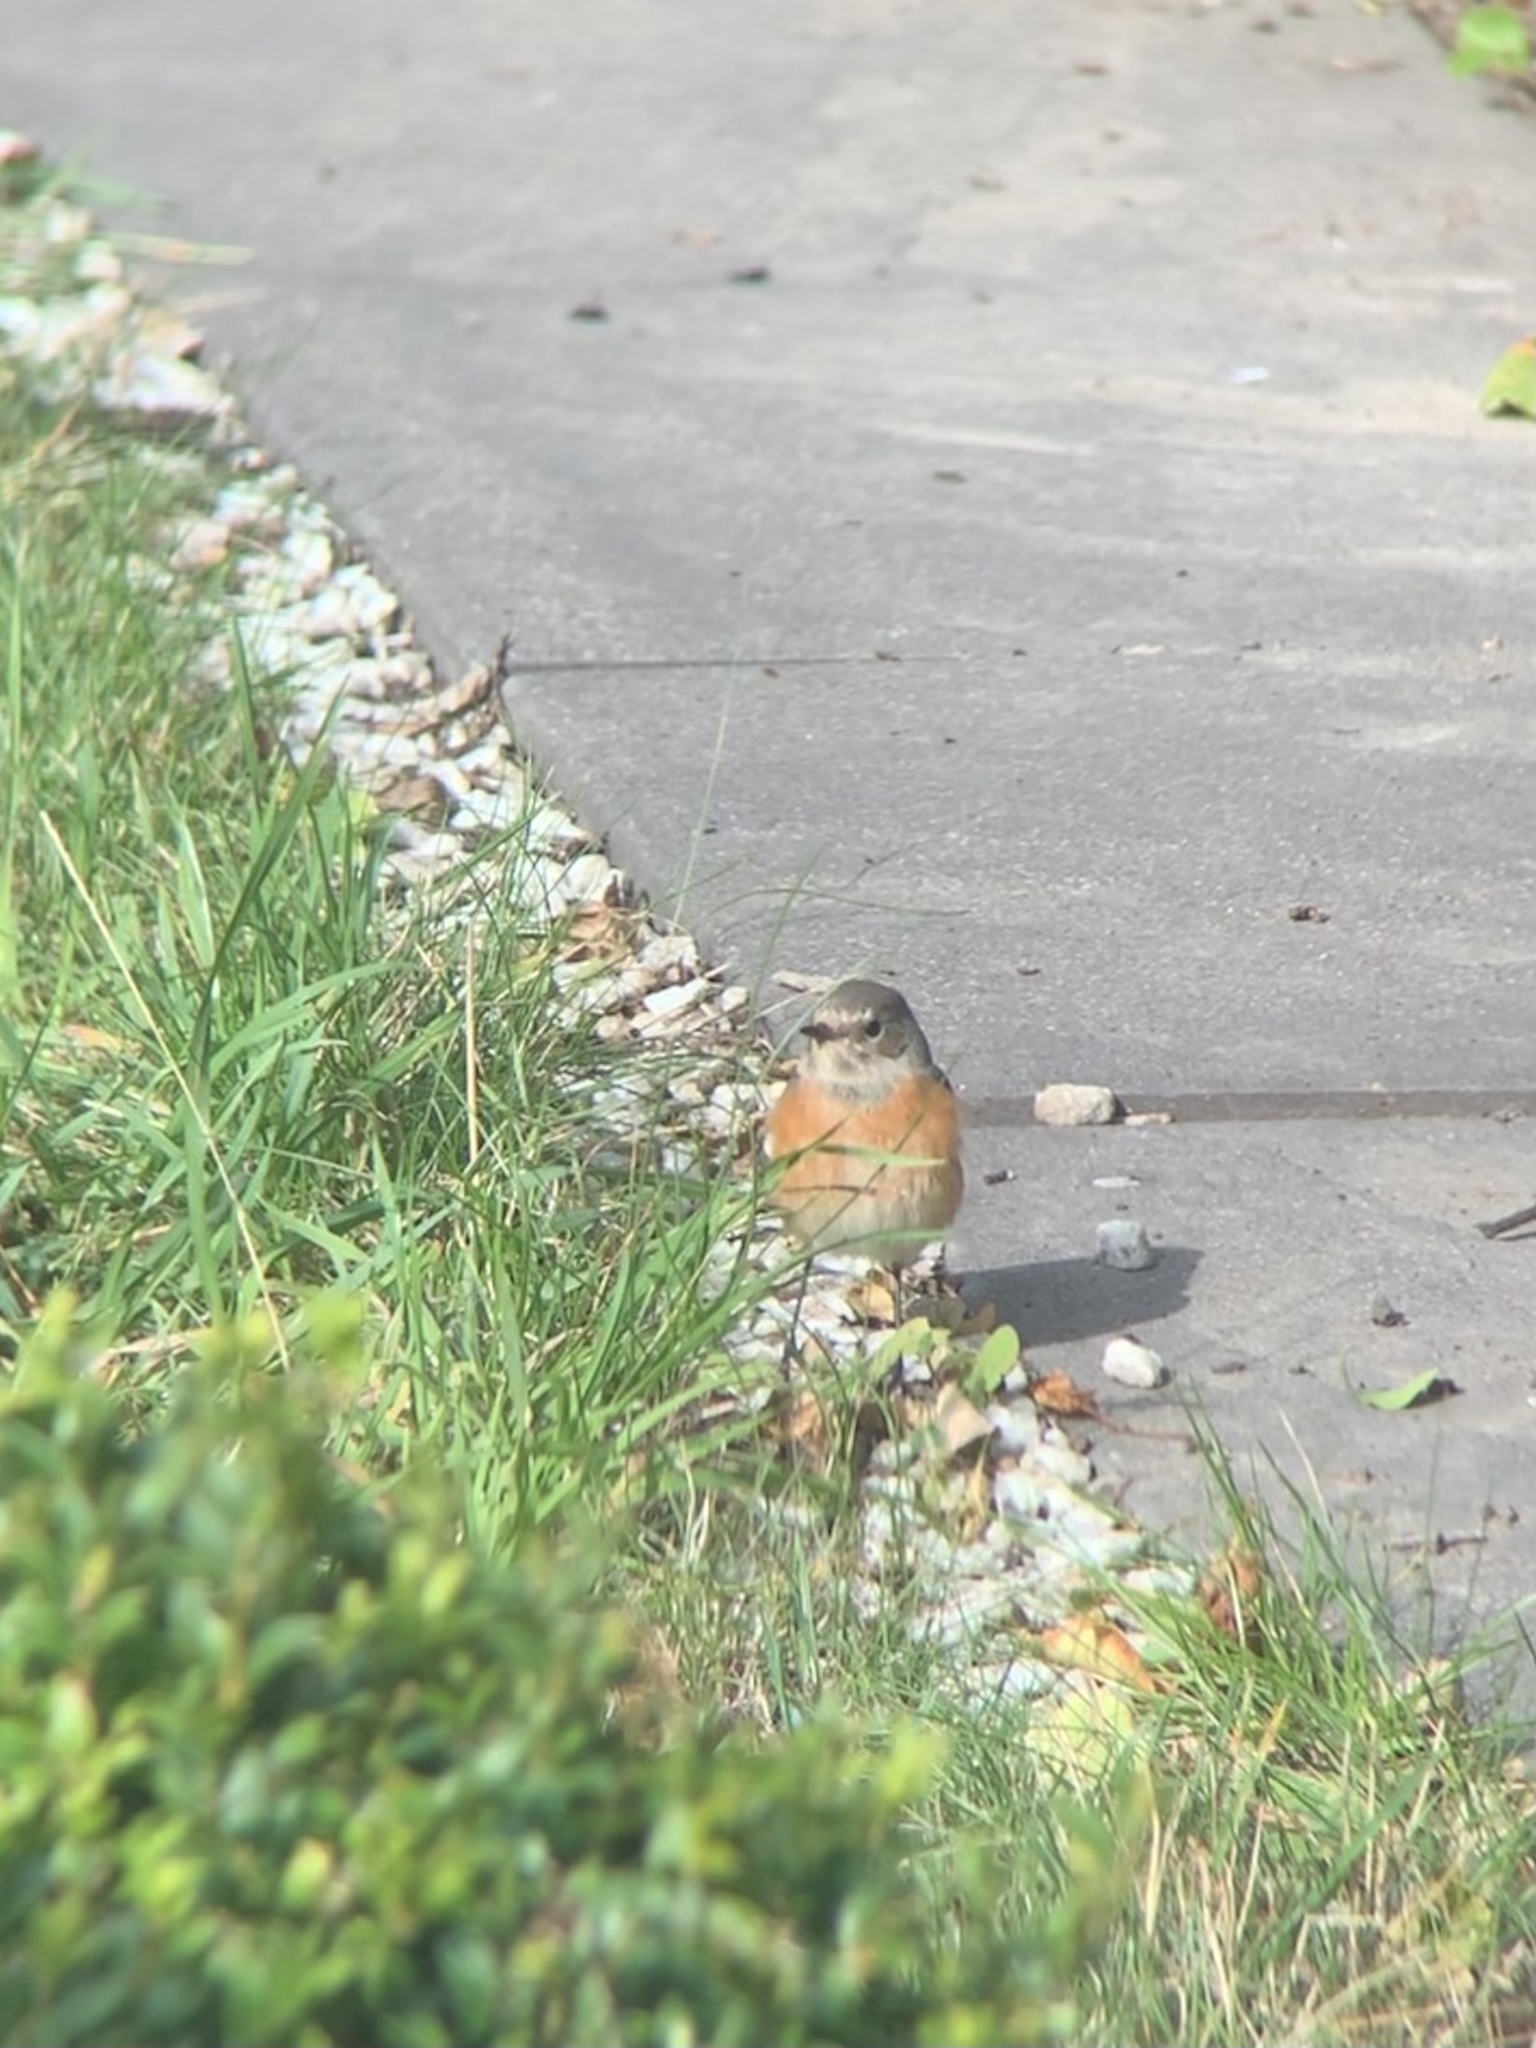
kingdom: Animalia
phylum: Chordata
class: Aves
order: Passeriformes
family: Muscicapidae
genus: Phoenicurus
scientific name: Phoenicurus phoenicurus
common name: Common redstart
